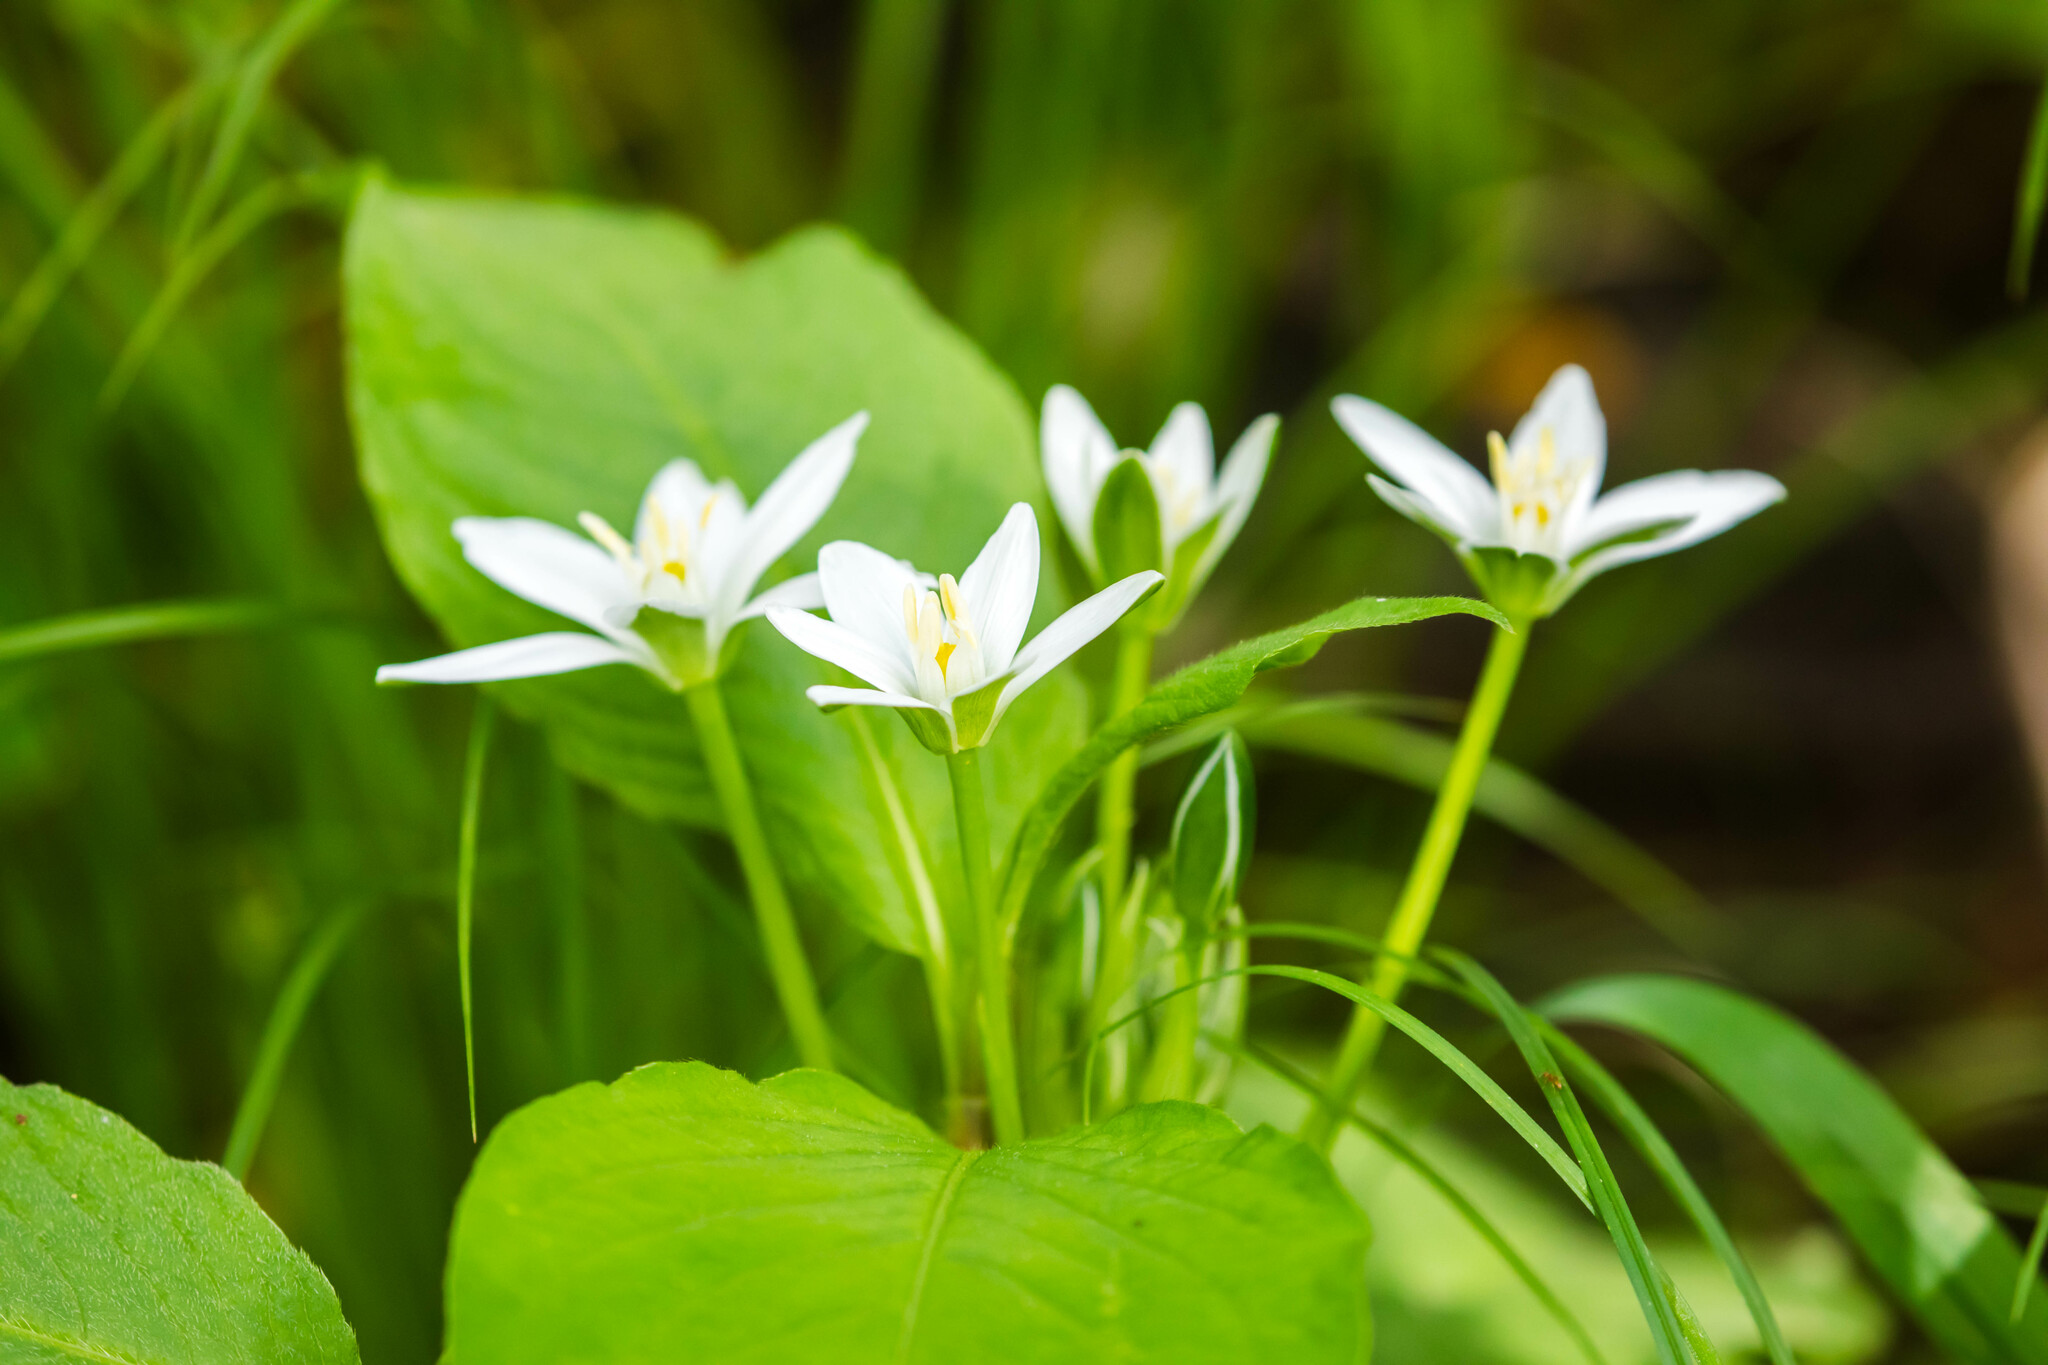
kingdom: Plantae
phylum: Tracheophyta
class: Liliopsida
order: Asparagales
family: Asparagaceae
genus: Ornithogalum
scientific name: Ornithogalum umbellatum
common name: Garden star-of-bethlehem
